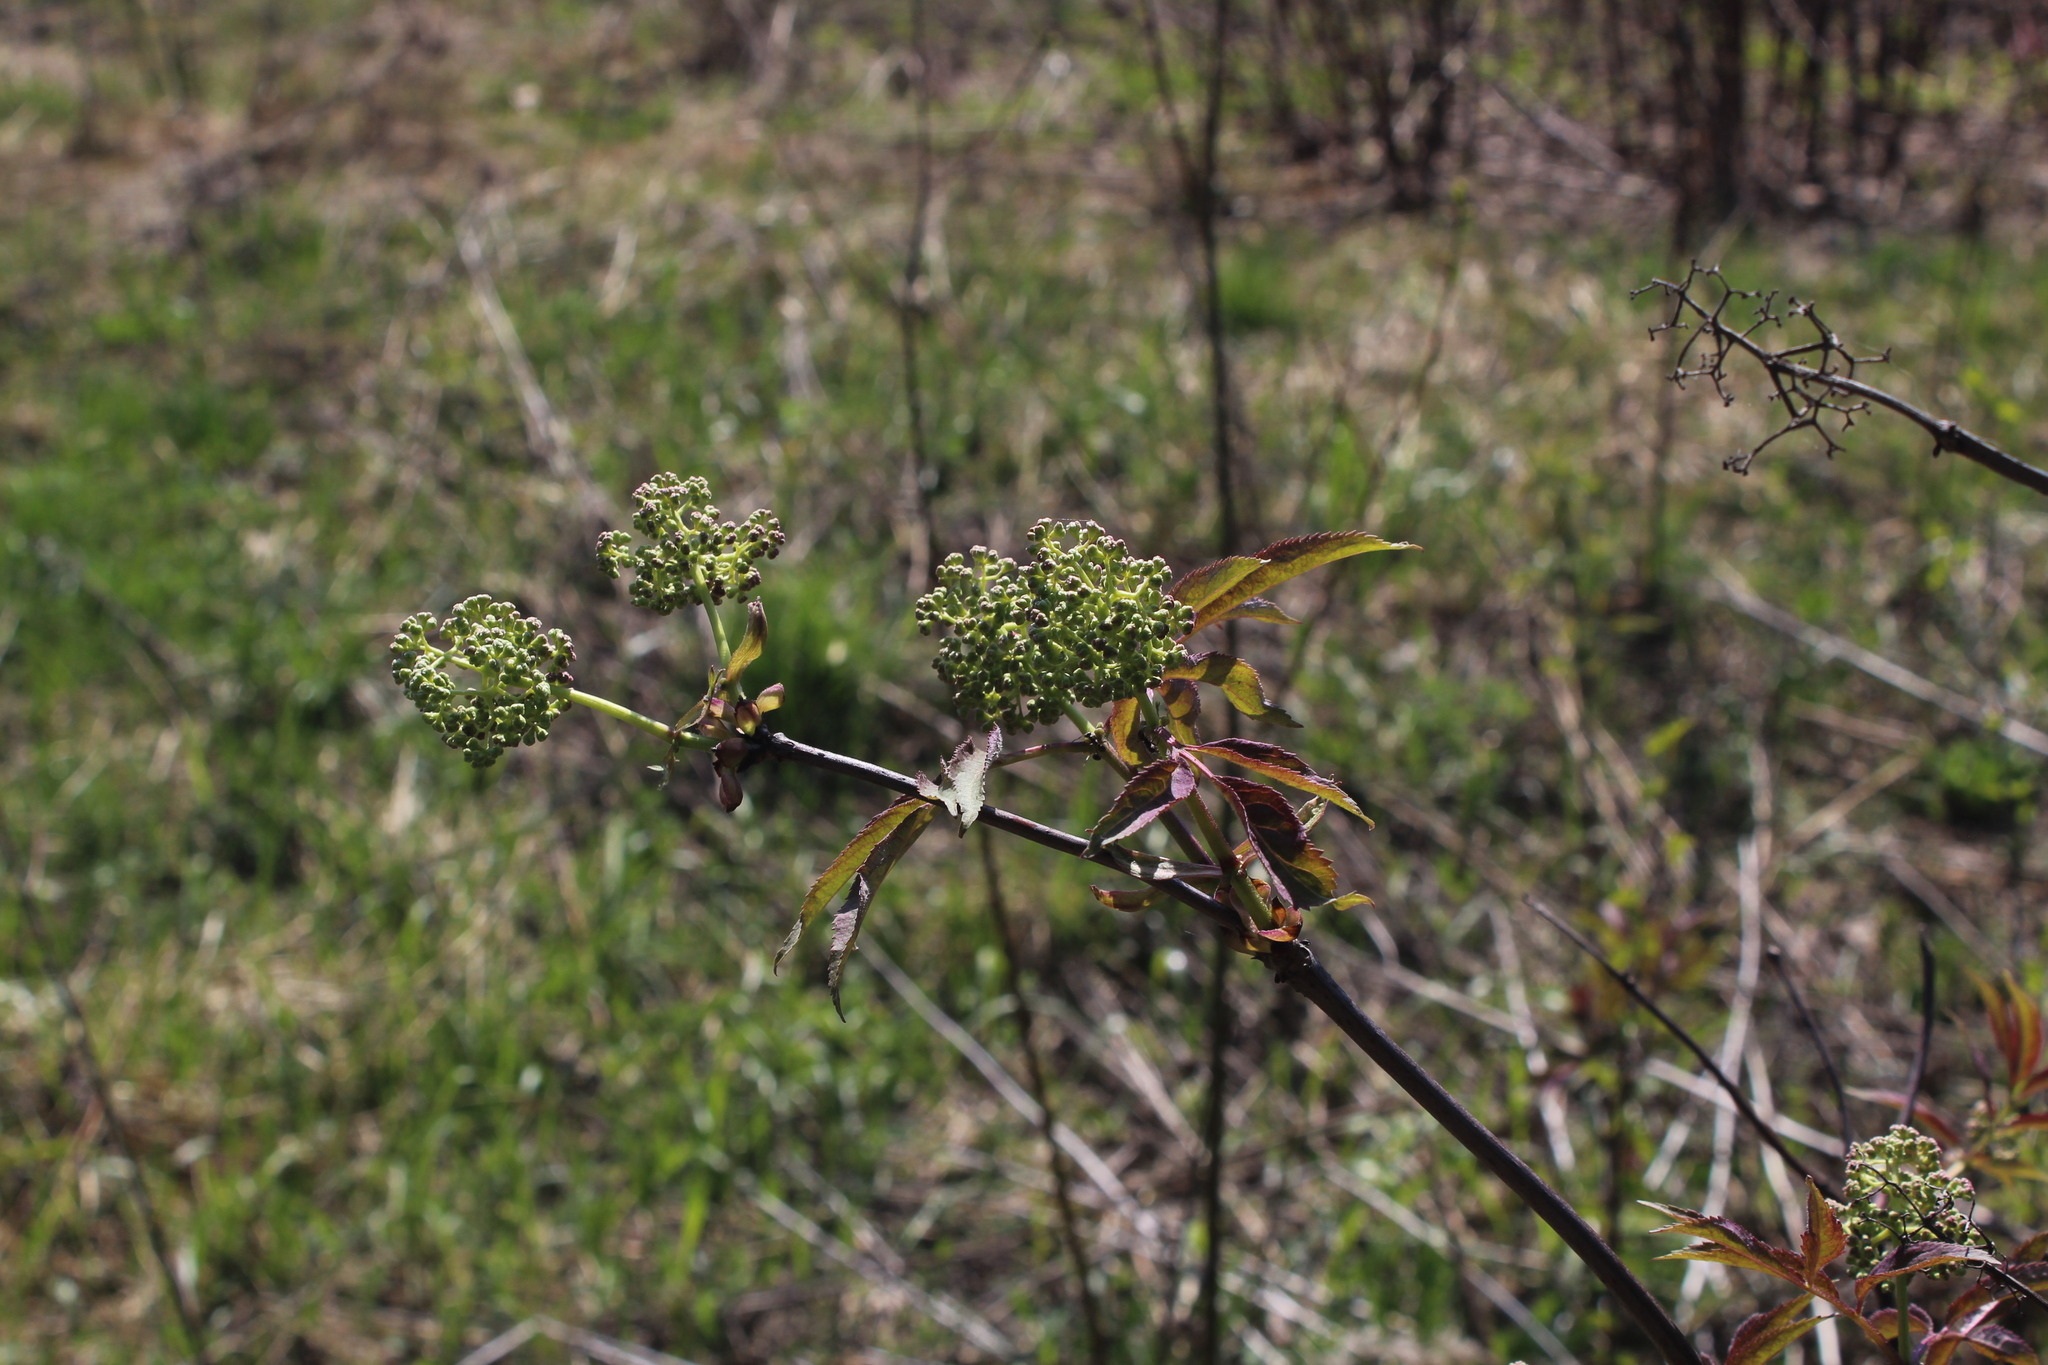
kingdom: Plantae
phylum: Tracheophyta
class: Magnoliopsida
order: Dipsacales
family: Viburnaceae
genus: Sambucus
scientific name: Sambucus racemosa
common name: Red-berried elder
